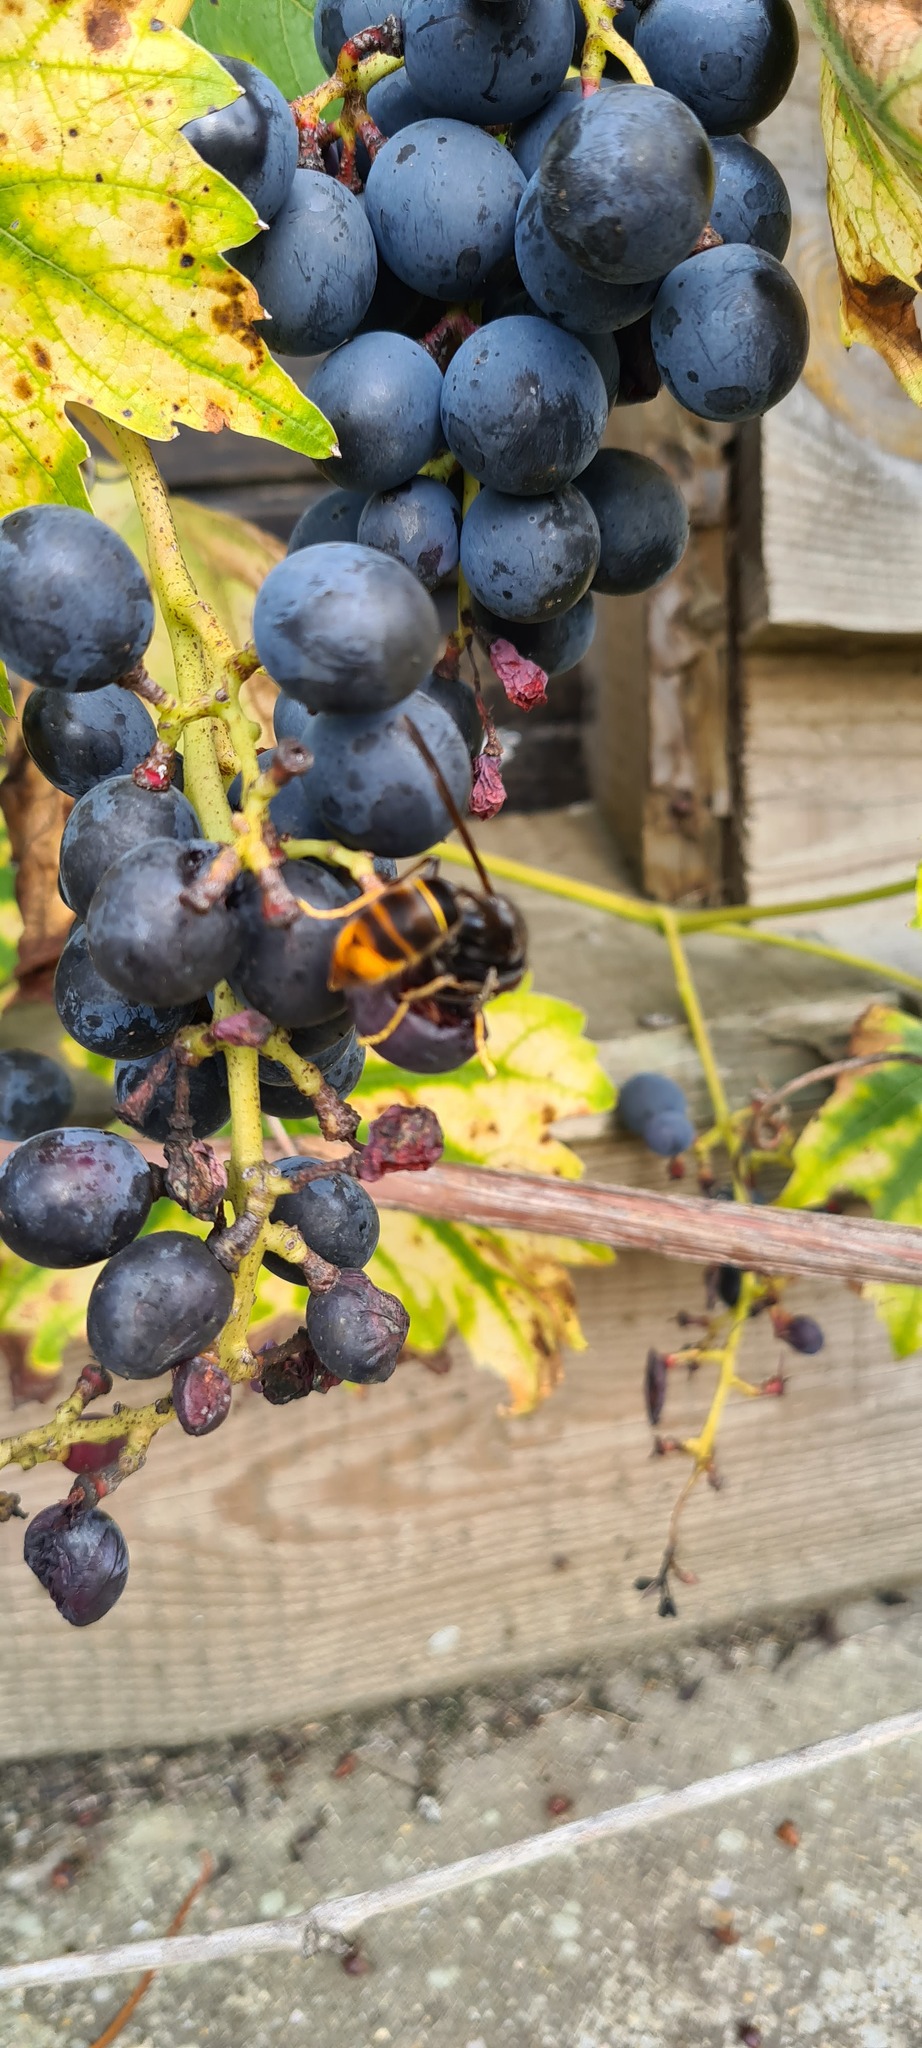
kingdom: Animalia
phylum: Arthropoda
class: Insecta
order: Hymenoptera
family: Vespidae
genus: Vespa
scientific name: Vespa velutina
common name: Asian hornet
